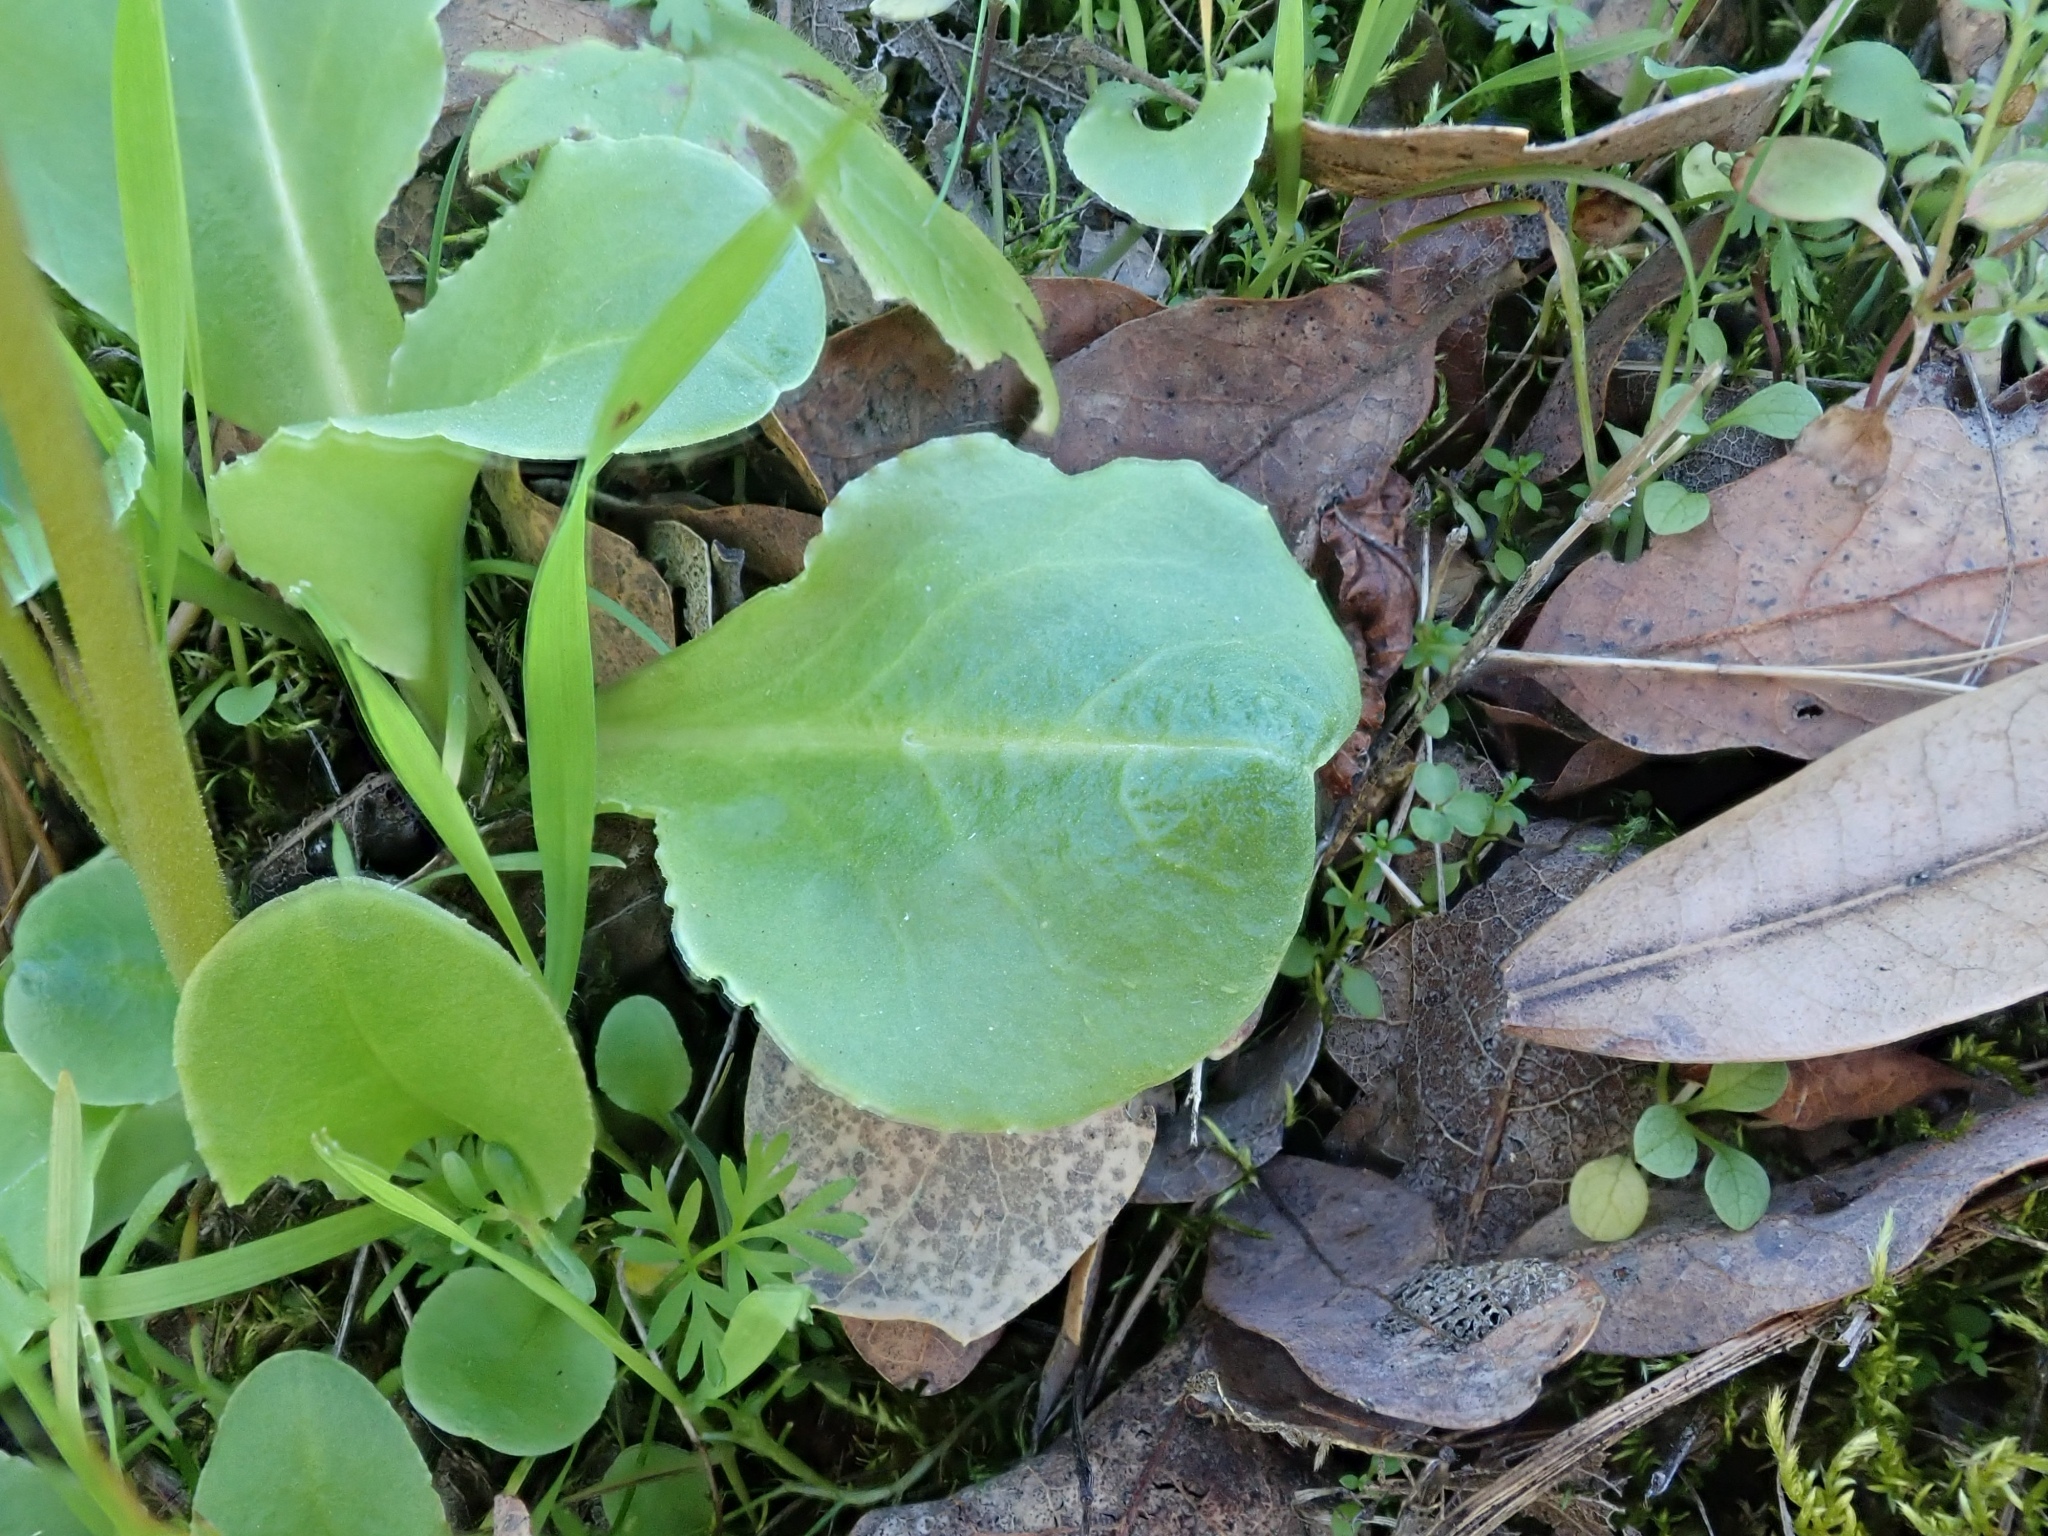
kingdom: Plantae
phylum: Tracheophyta
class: Magnoliopsida
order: Ericales
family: Primulaceae
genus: Dodecatheon
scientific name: Dodecatheon hendersonii
